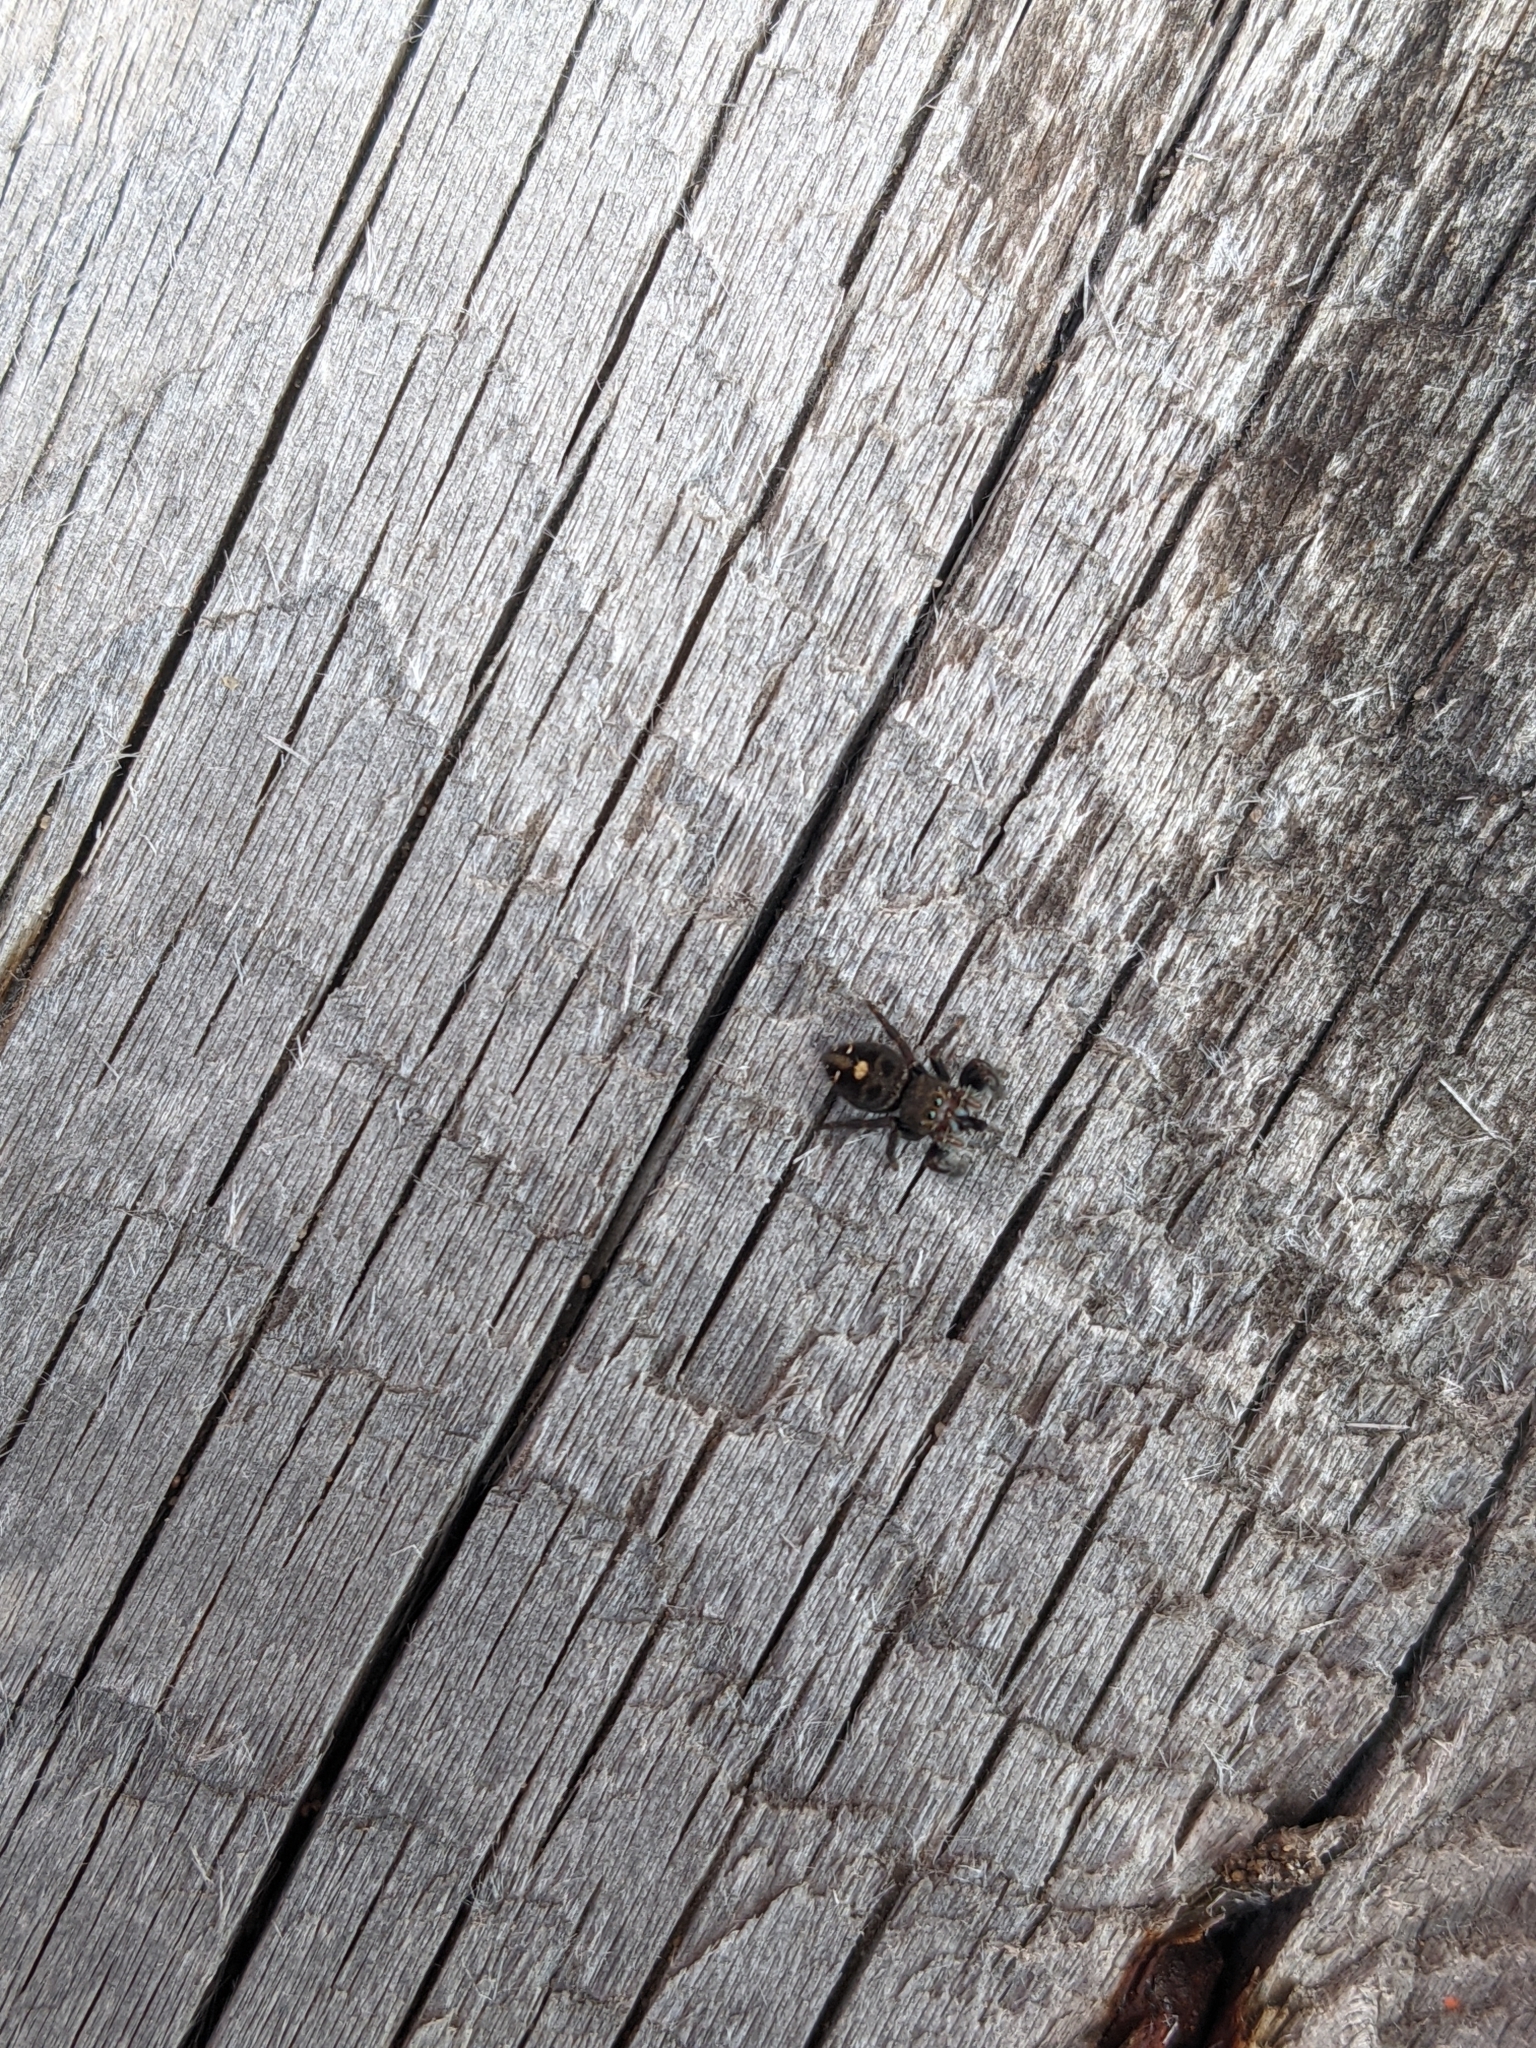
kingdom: Animalia
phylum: Arthropoda
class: Arachnida
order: Araneae
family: Salticidae
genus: Phidippus
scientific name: Phidippus audax
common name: Bold jumper
